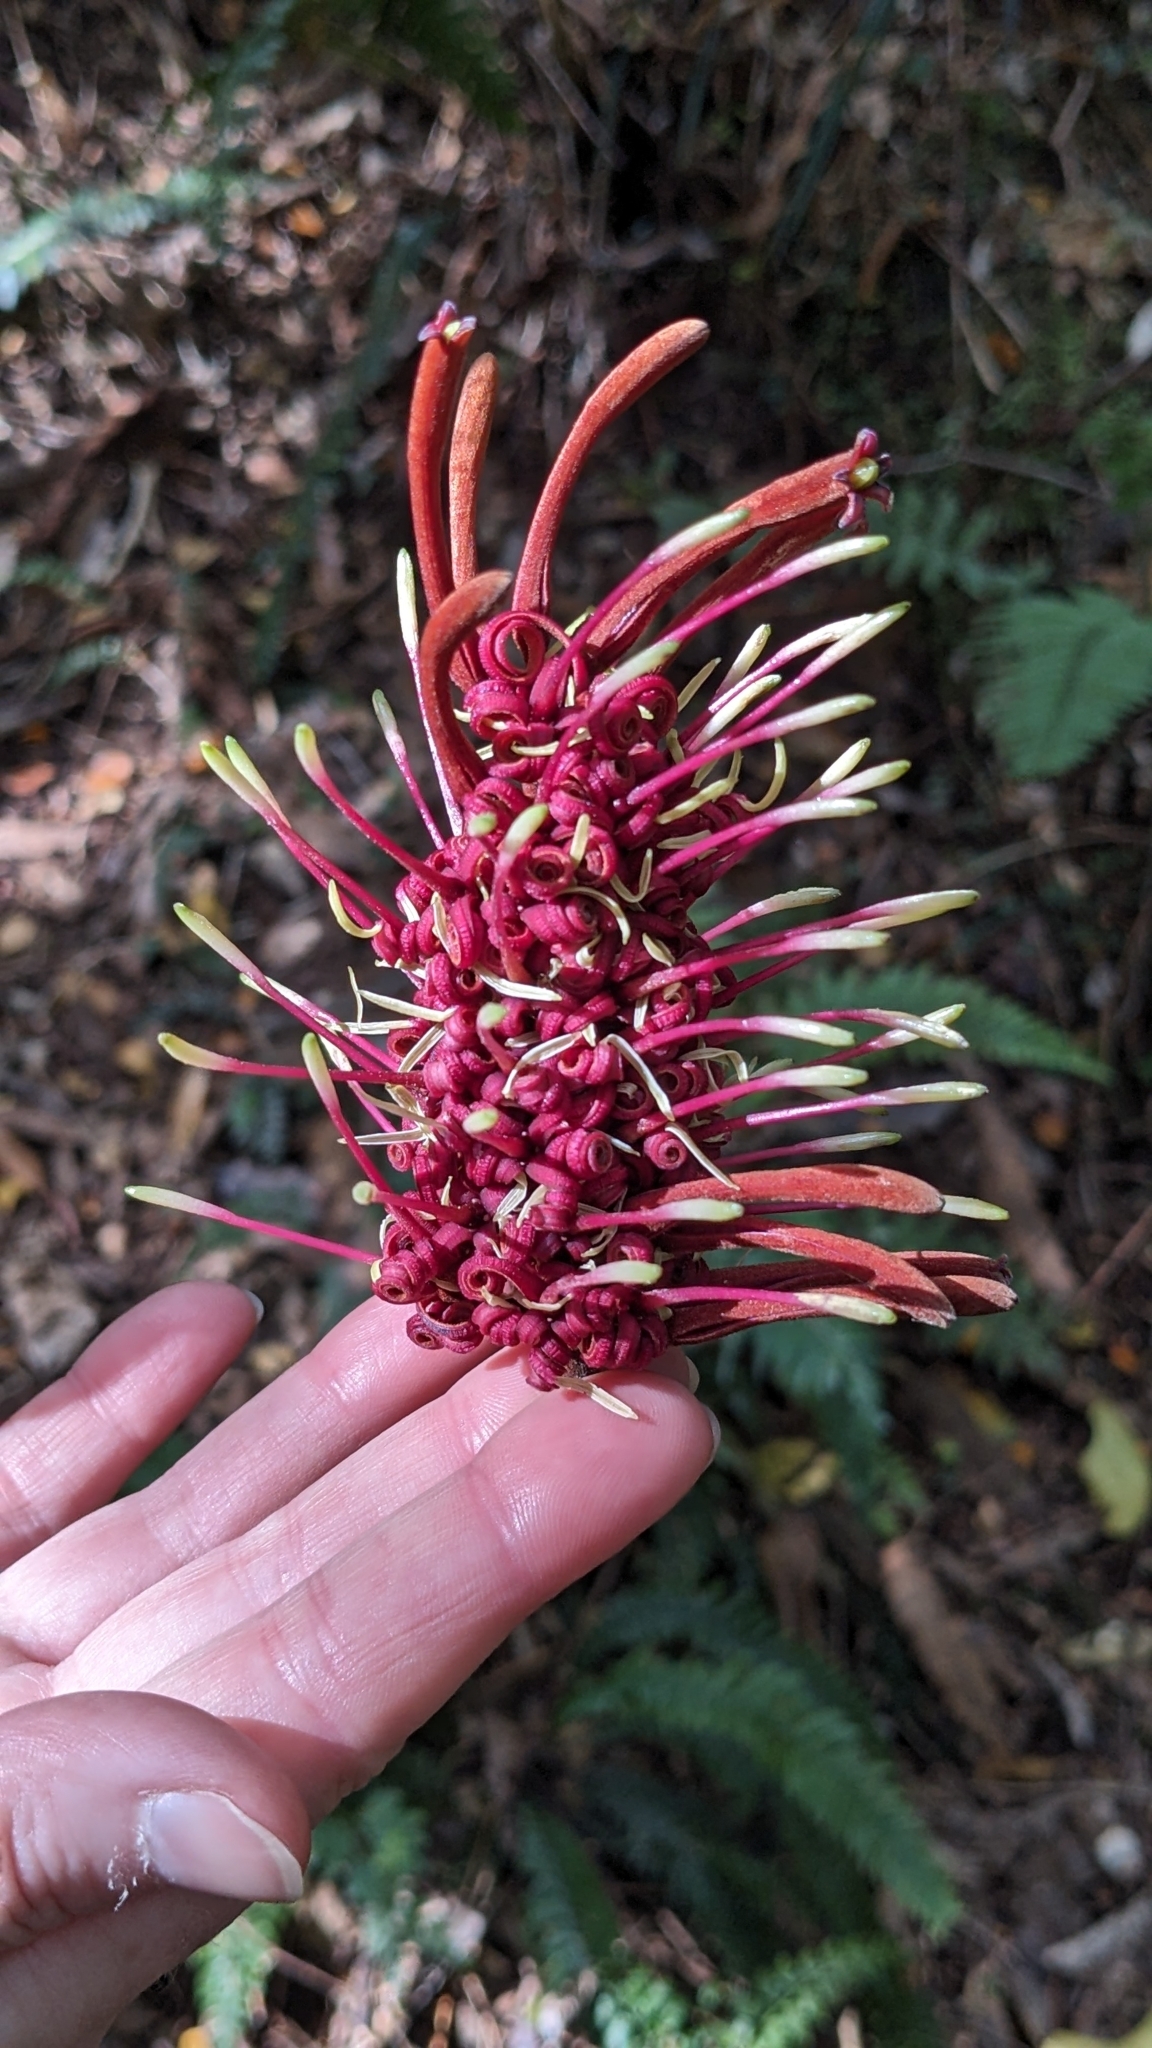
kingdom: Plantae
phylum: Tracheophyta
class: Magnoliopsida
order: Proteales
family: Proteaceae
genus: Knightia
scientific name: Knightia excelsa
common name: New zealand-honeysuckle
